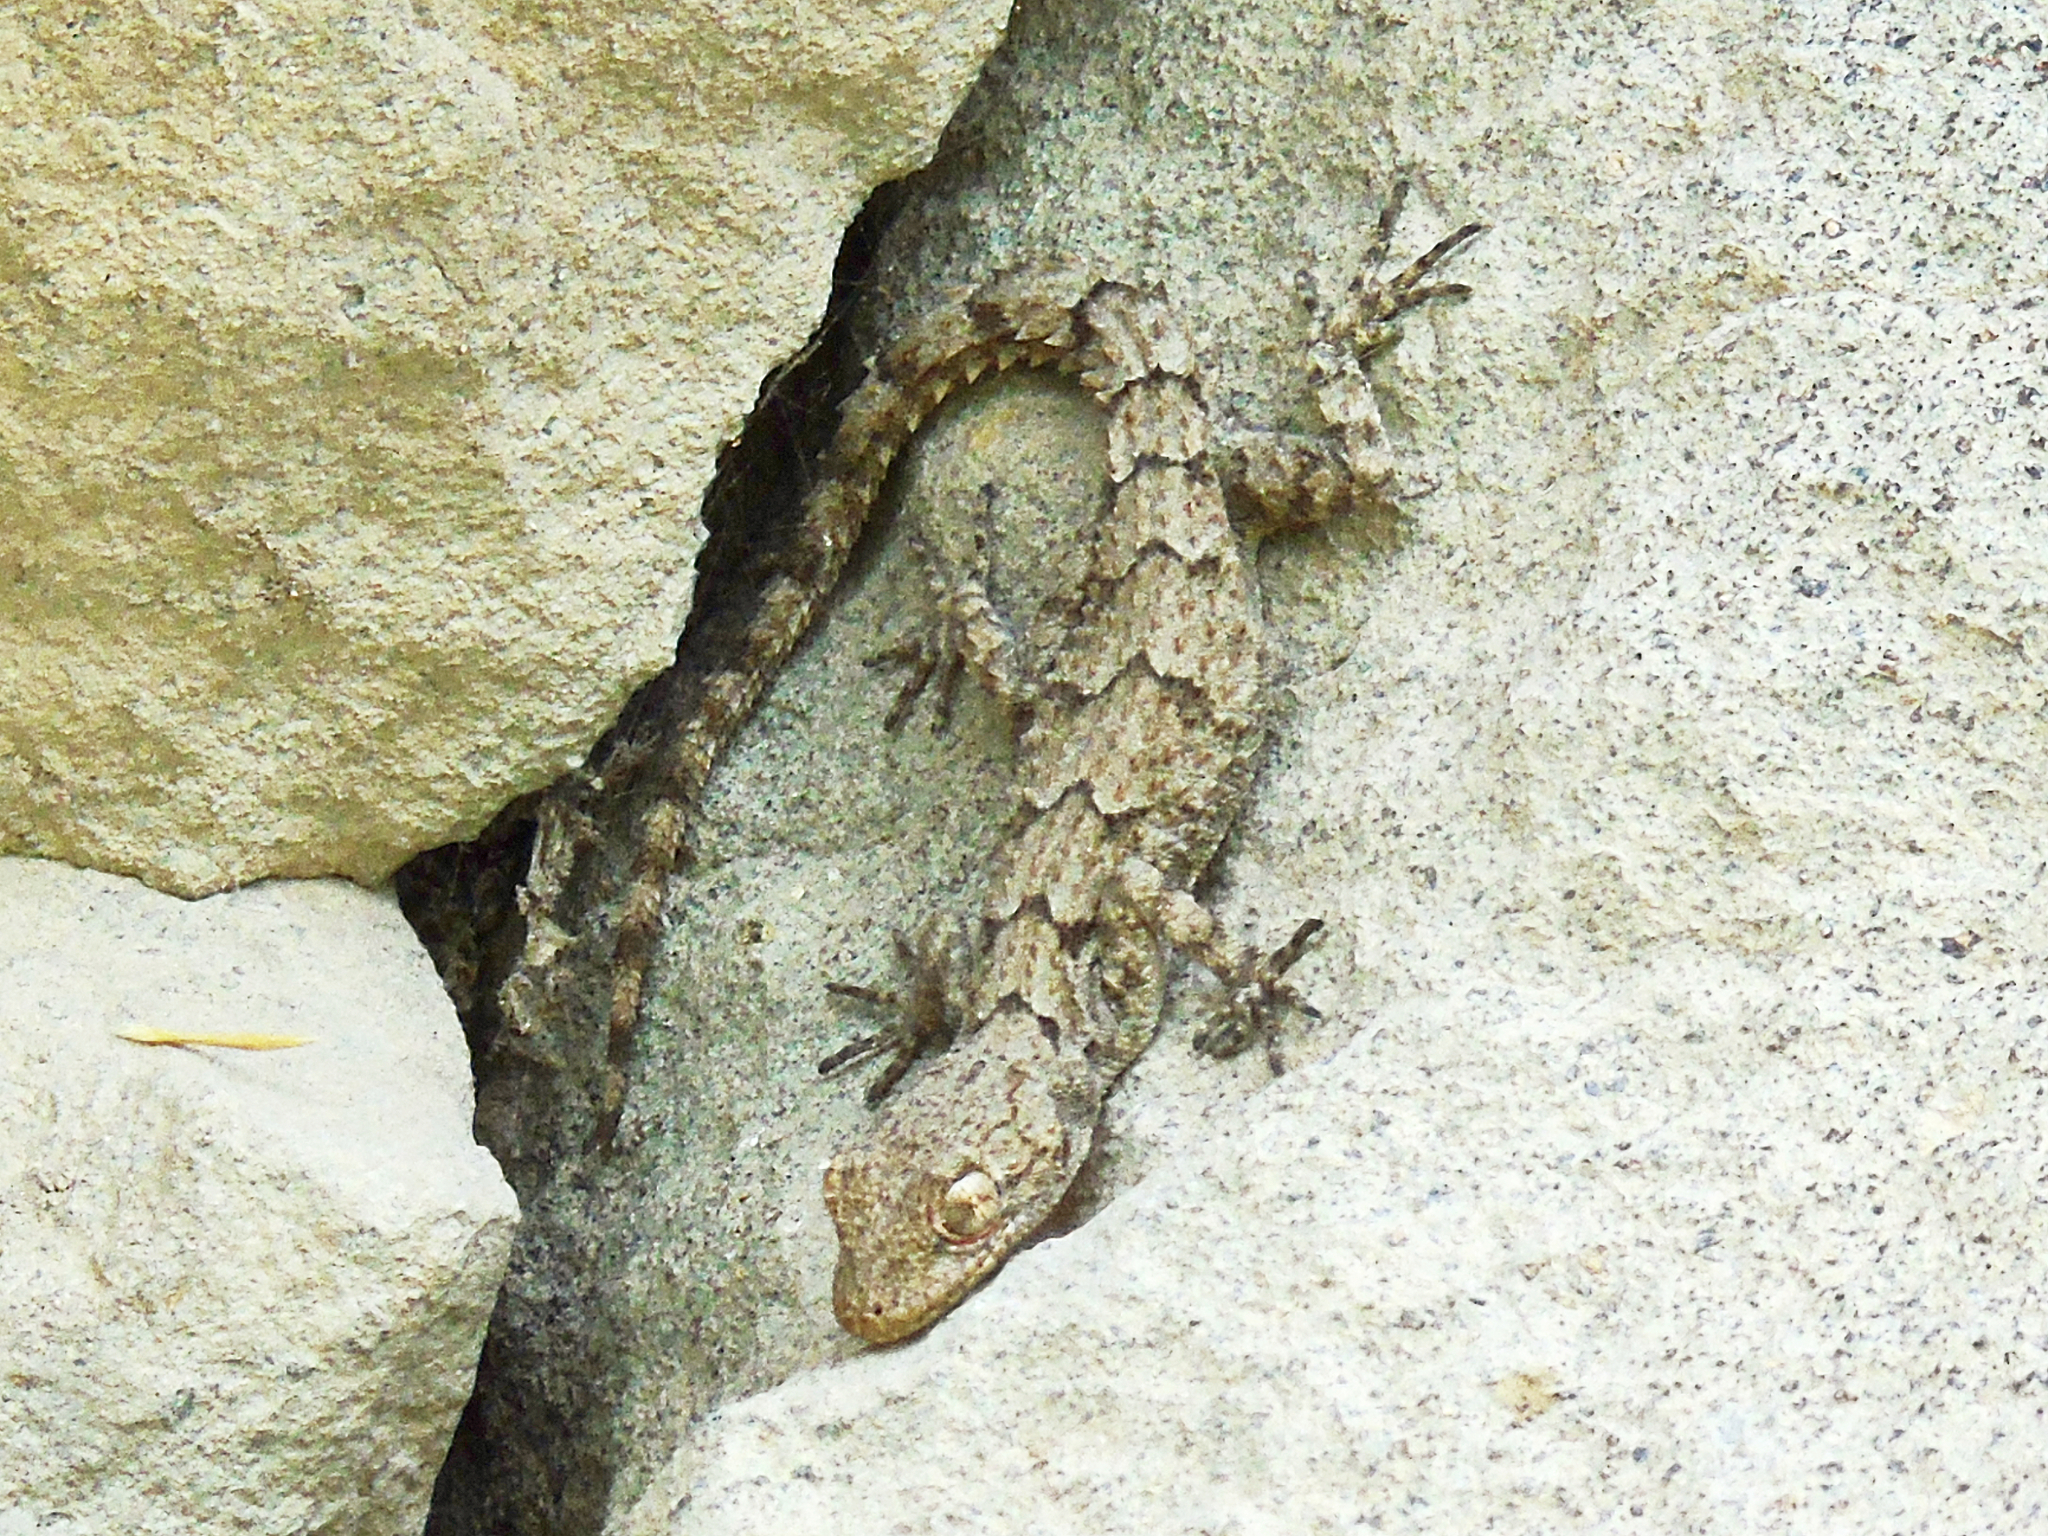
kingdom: Animalia
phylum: Chordata
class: Squamata
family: Gekkonidae
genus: Mediodactylus
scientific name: Mediodactylus heterocercus
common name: Asia minor thin-toed gecko
